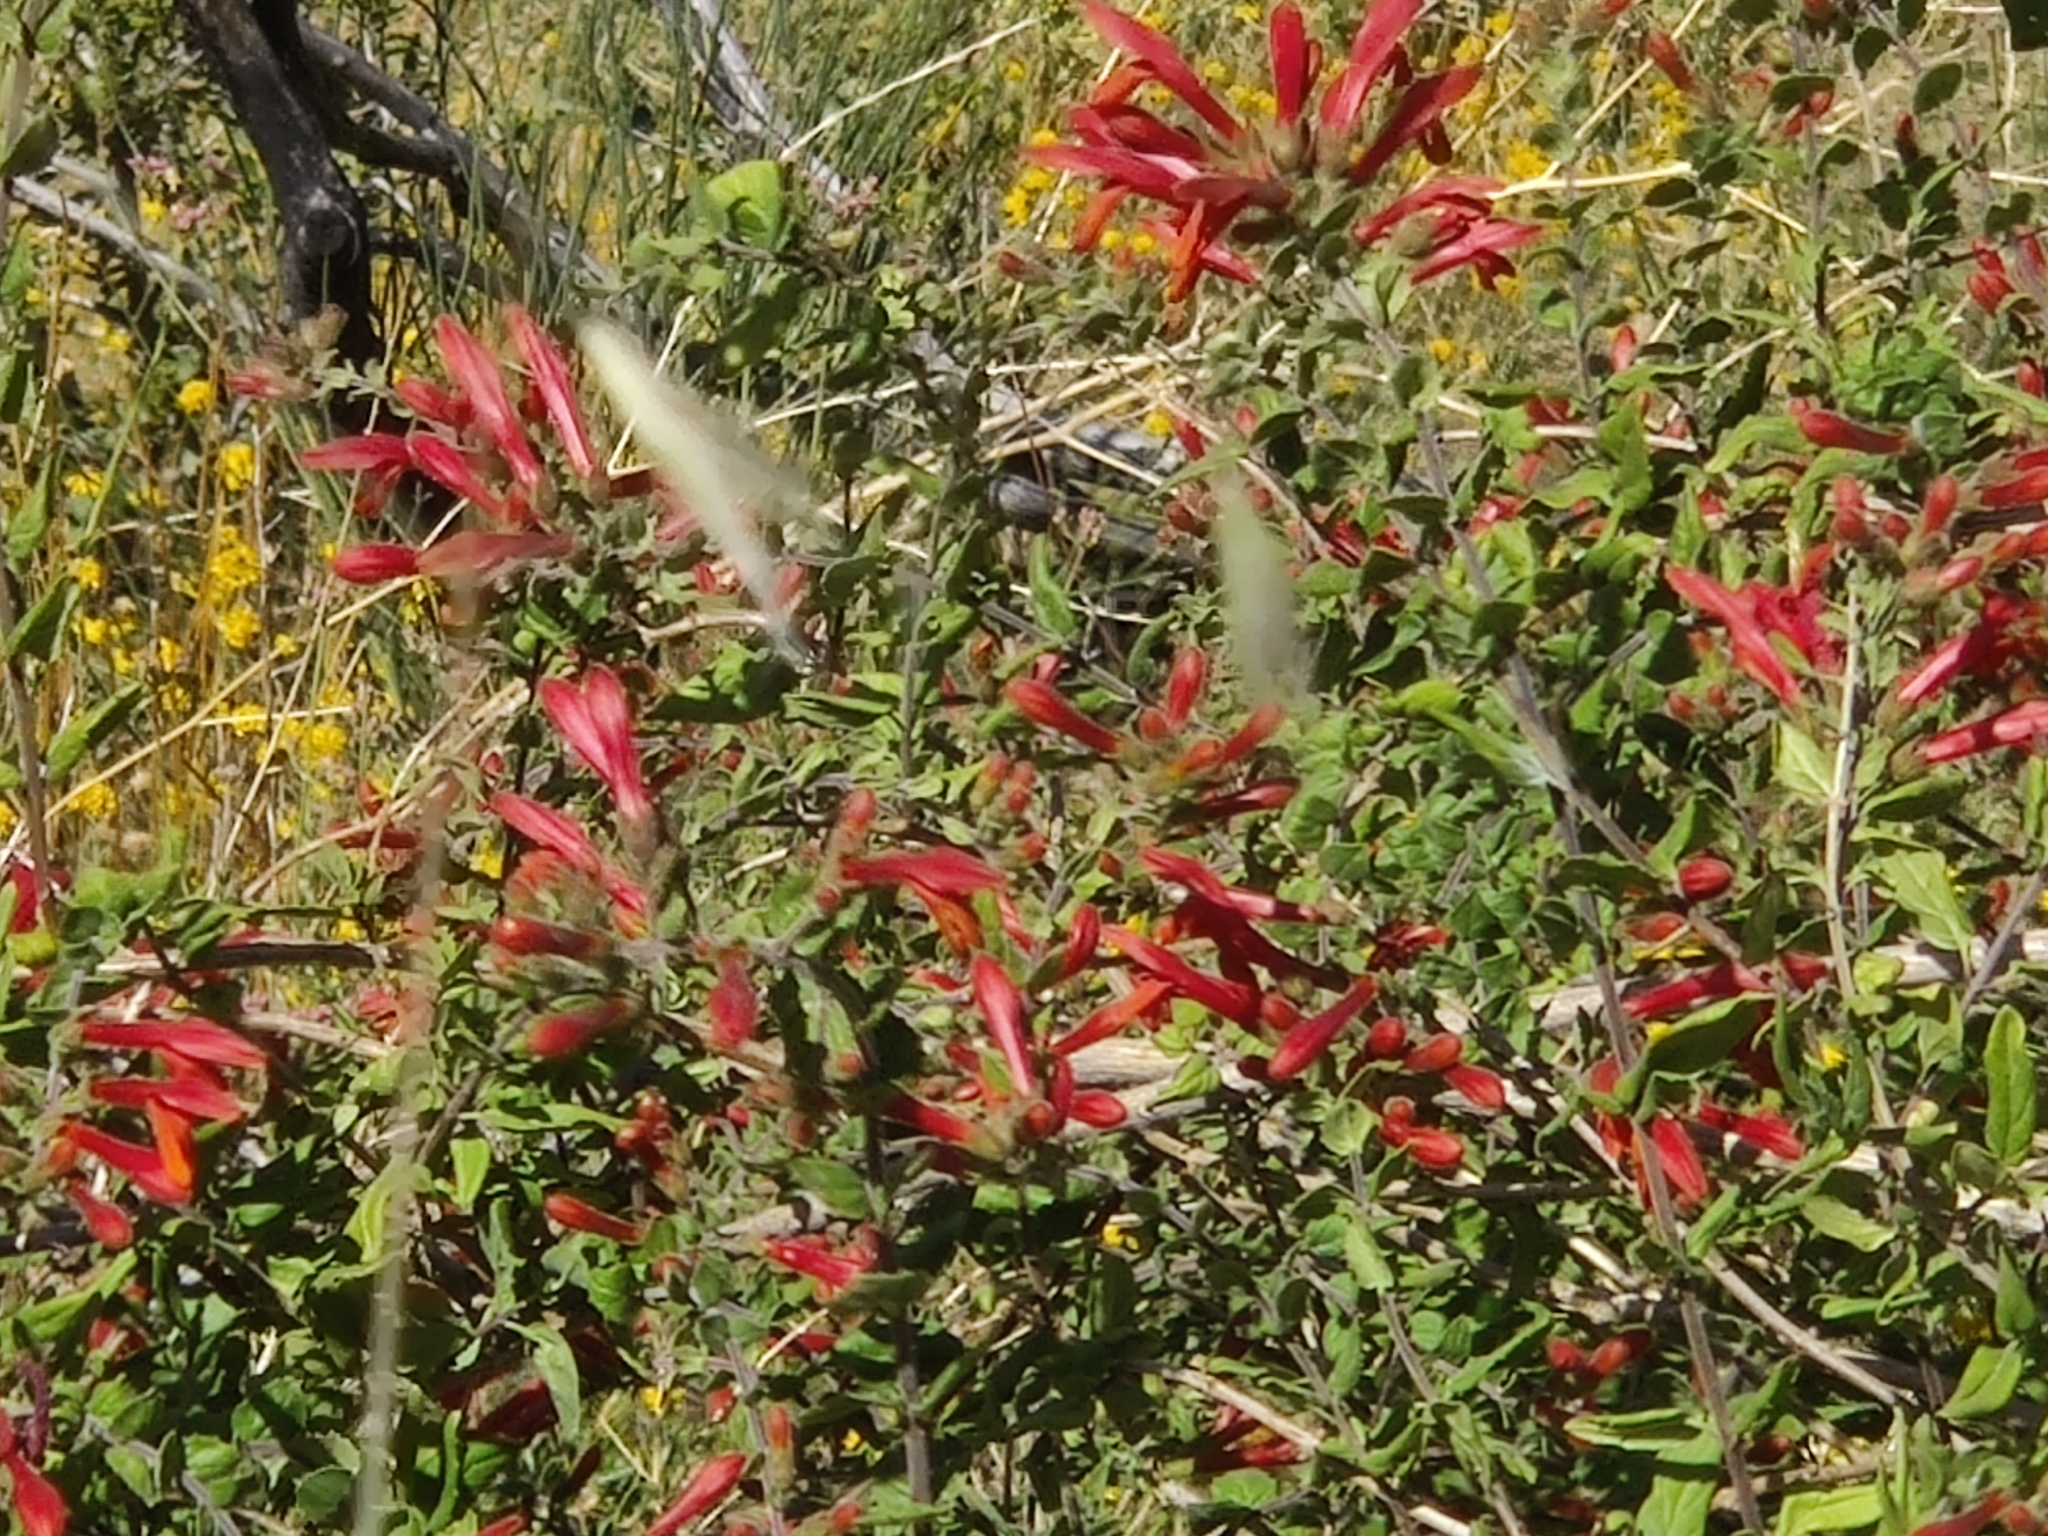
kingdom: Plantae
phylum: Tracheophyta
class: Magnoliopsida
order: Lamiales
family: Plantaginaceae
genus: Keckiella
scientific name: Keckiella cordifolia
